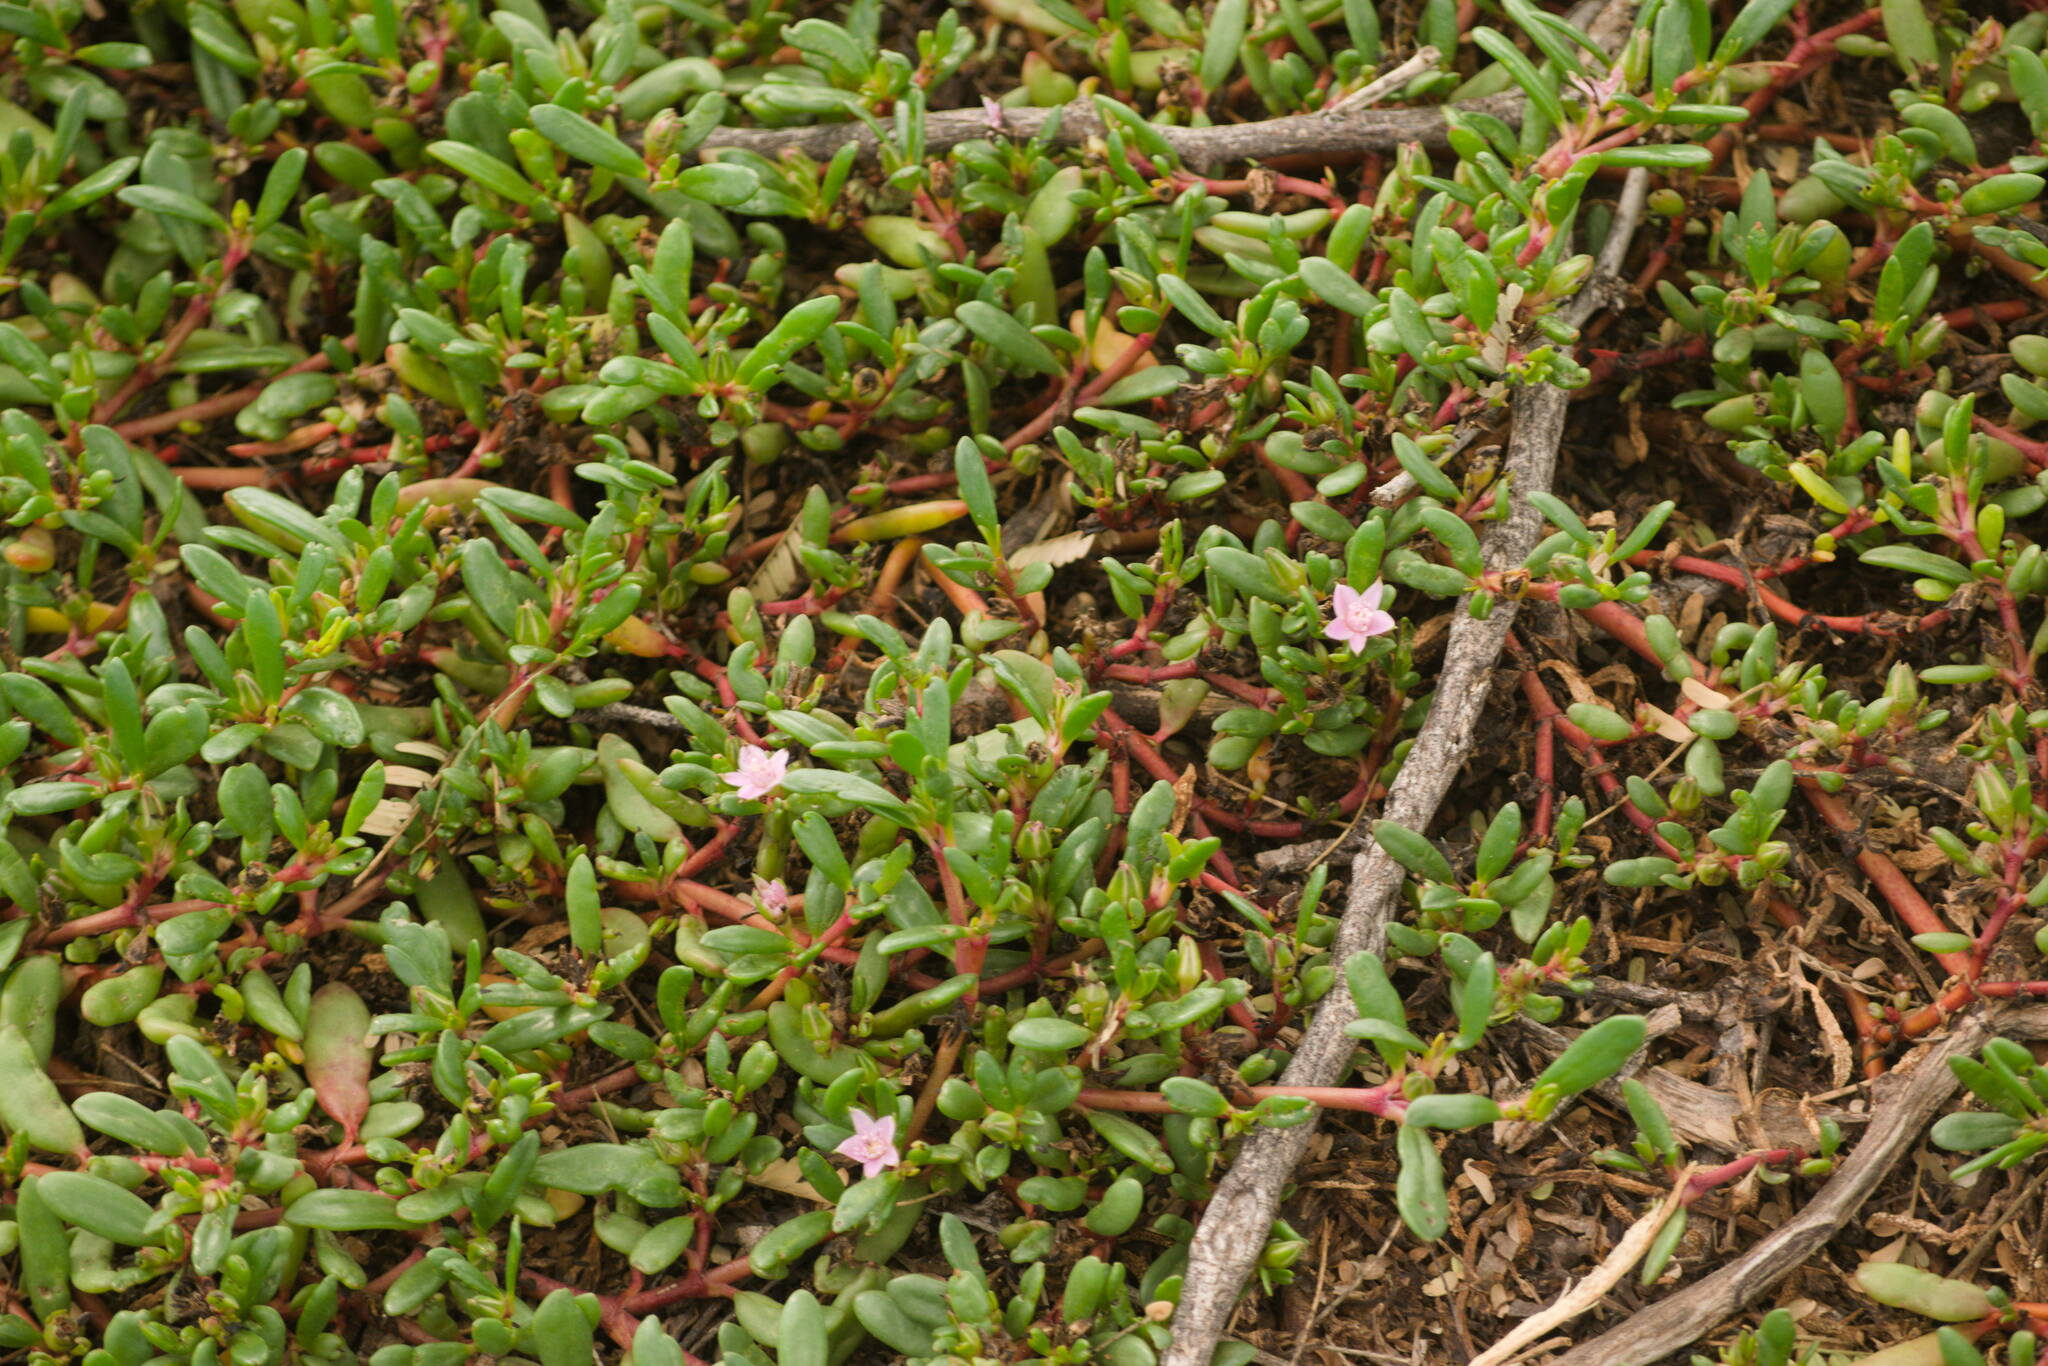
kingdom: Plantae
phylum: Tracheophyta
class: Magnoliopsida
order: Caryophyllales
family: Aizoaceae
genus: Sesuvium
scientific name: Sesuvium portulacastrum
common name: Sea-purslane
